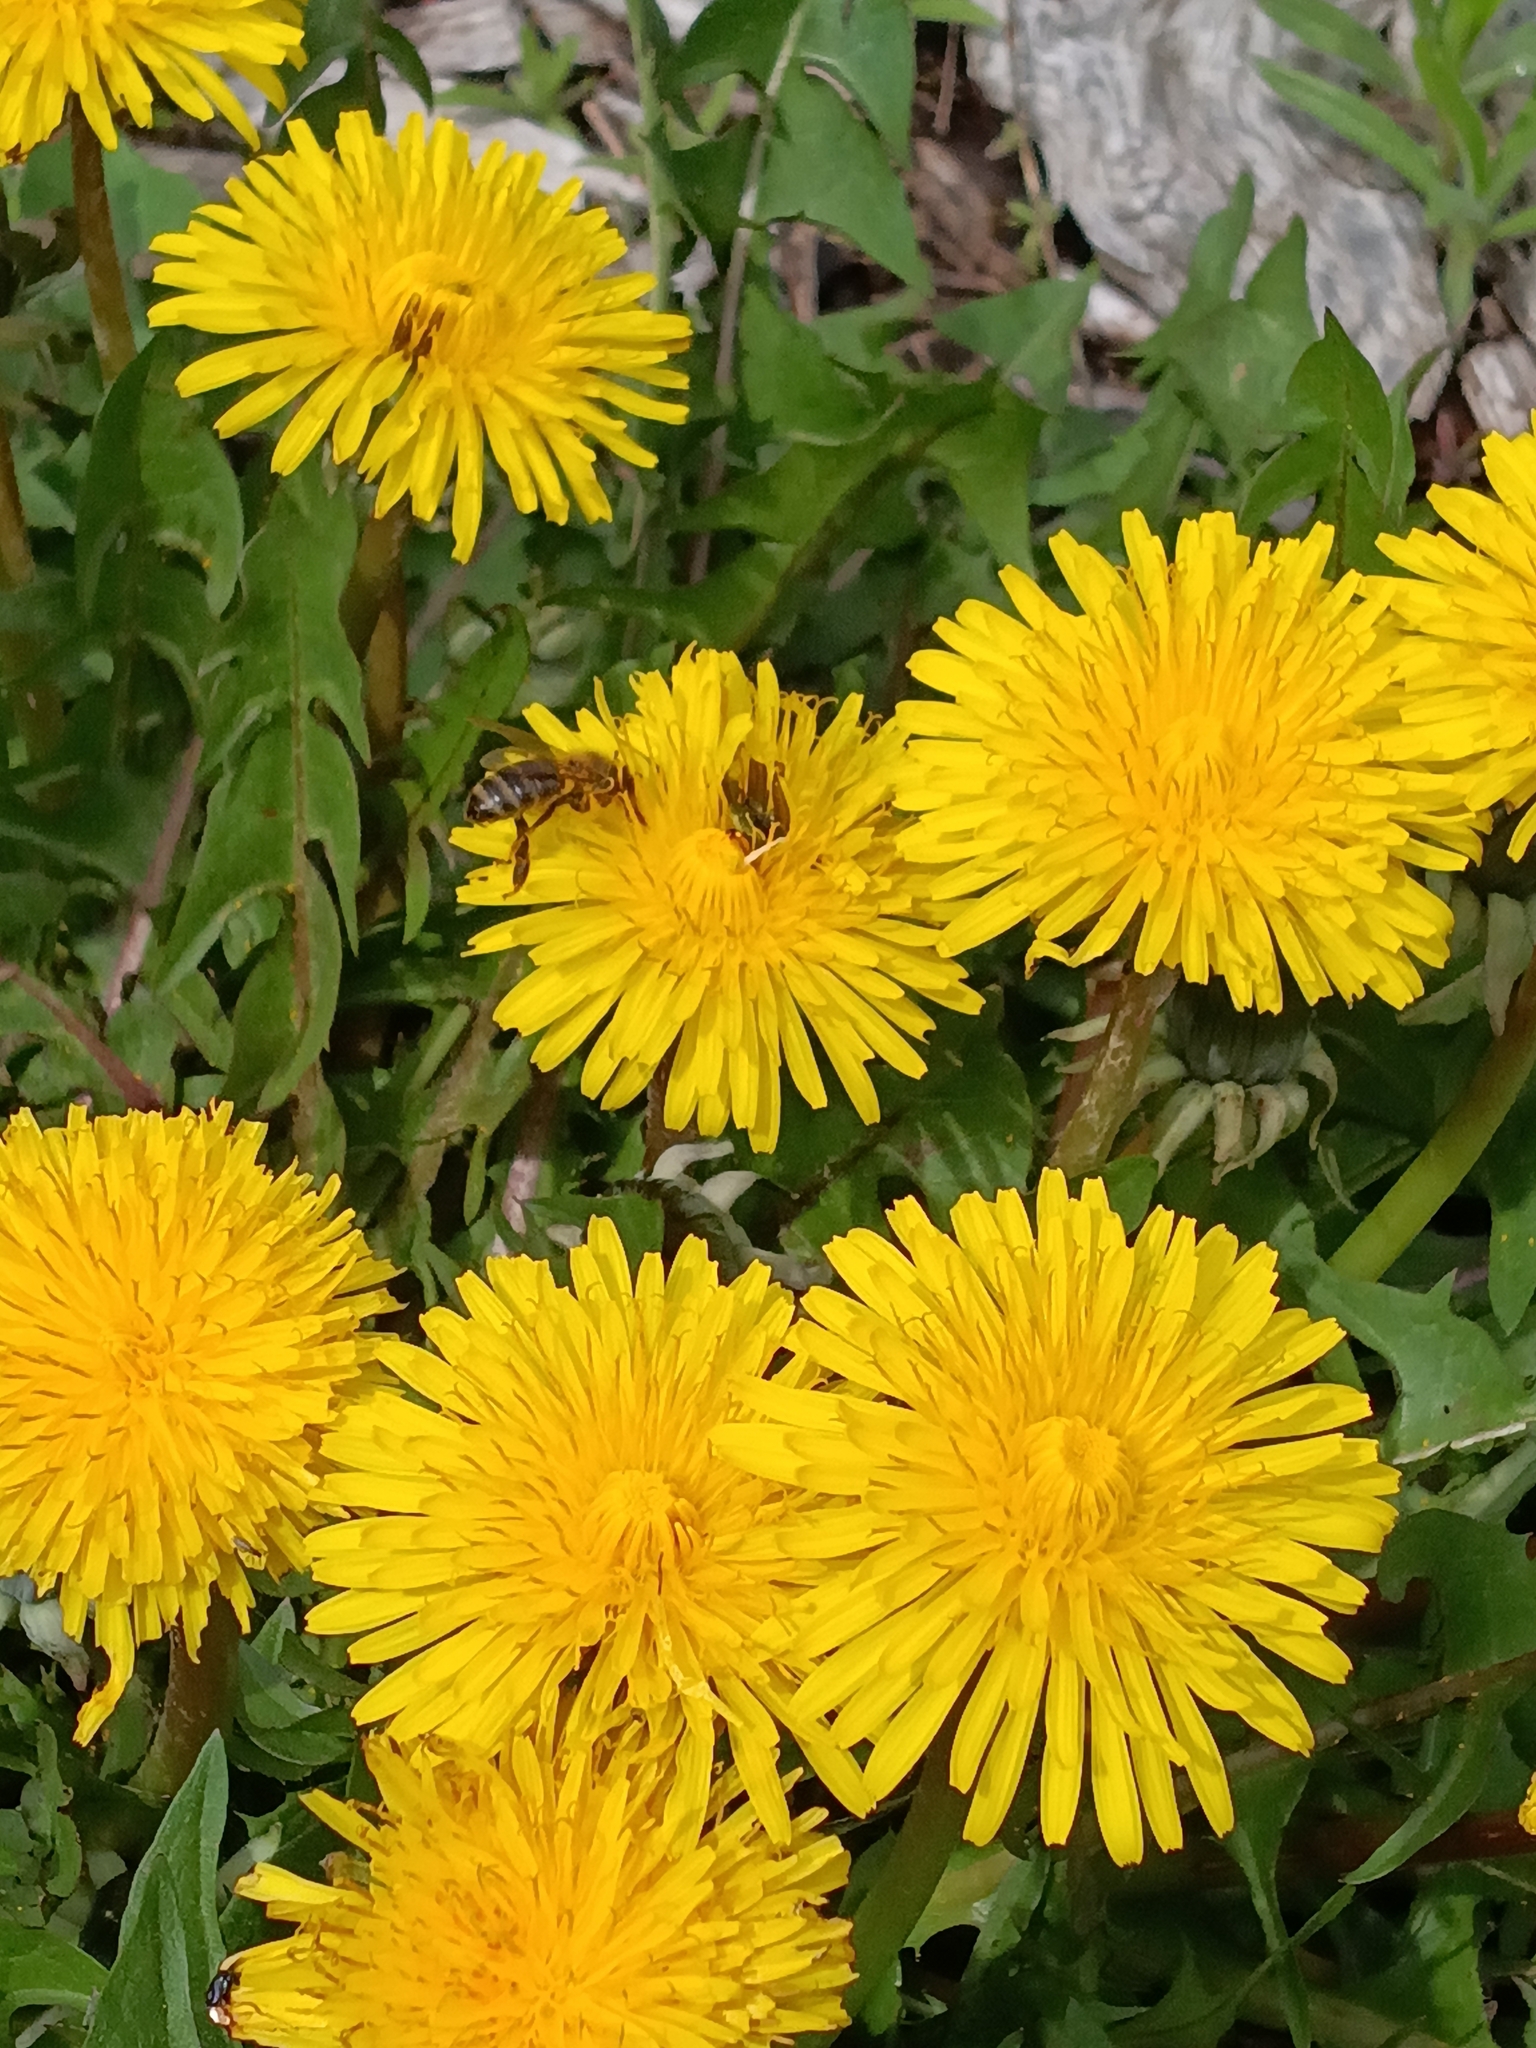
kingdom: Animalia
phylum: Arthropoda
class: Insecta
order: Hymenoptera
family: Apidae
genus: Apis
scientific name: Apis mellifera
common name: Honey bee
